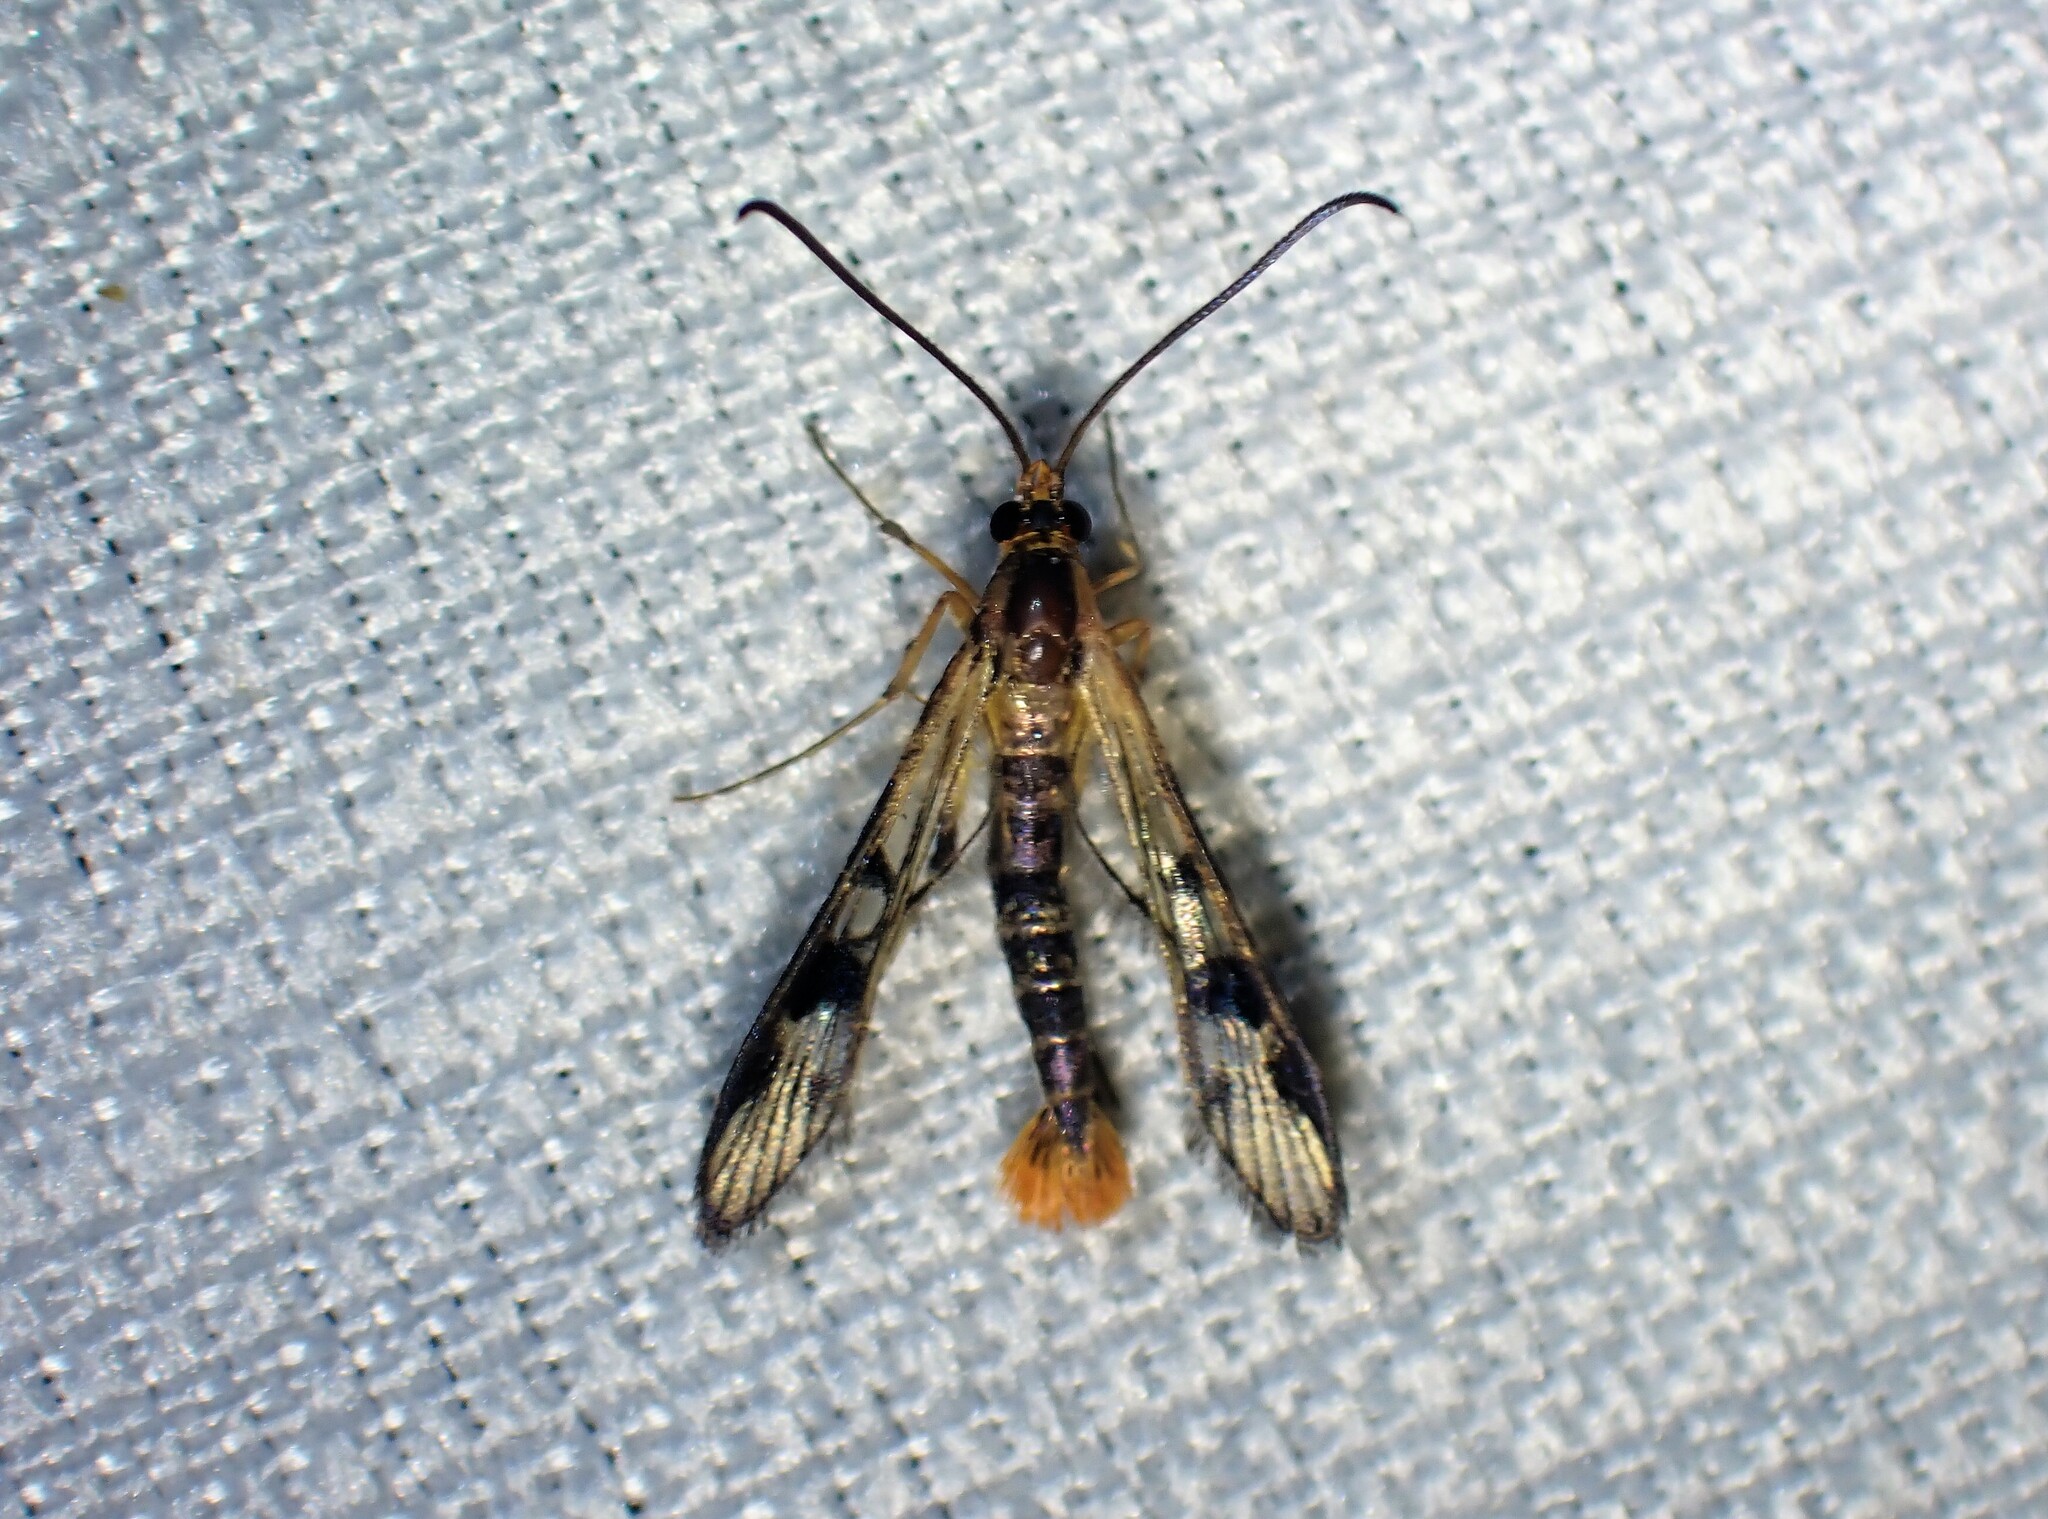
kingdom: Animalia
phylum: Arthropoda
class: Insecta
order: Lepidoptera
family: Sesiidae
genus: Synanthedon
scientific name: Synanthedon acerni
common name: Maple callus borer moth
